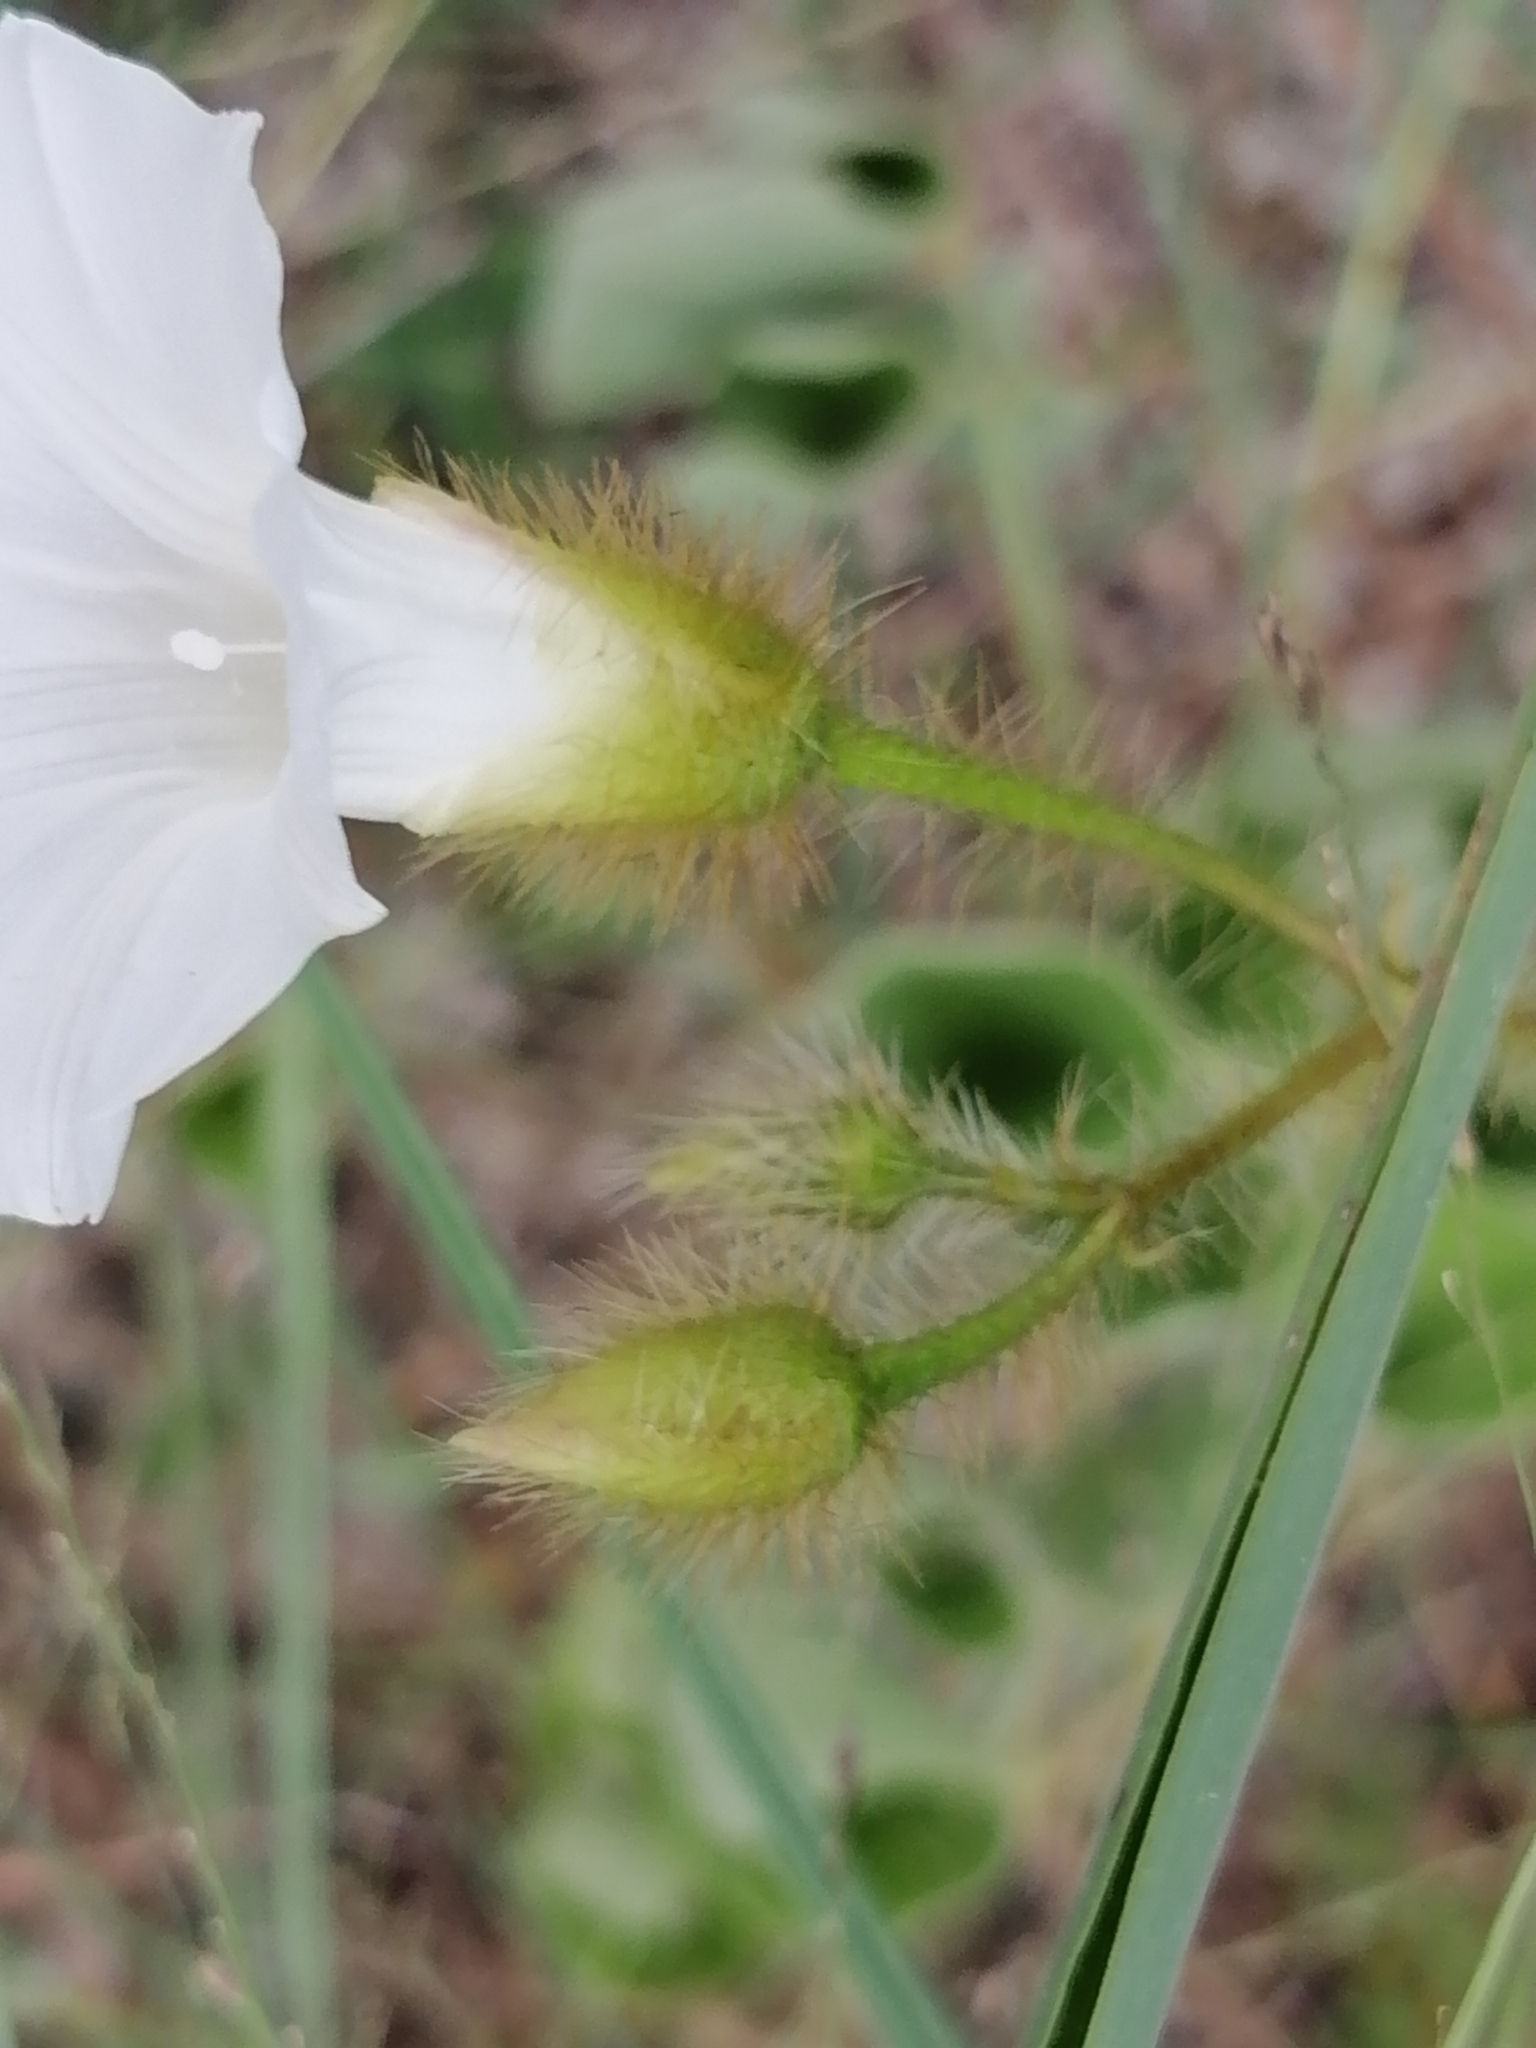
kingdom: Plantae
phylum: Tracheophyta
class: Magnoliopsida
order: Solanales
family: Convolvulaceae
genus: Distimake
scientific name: Distimake aegyptius
